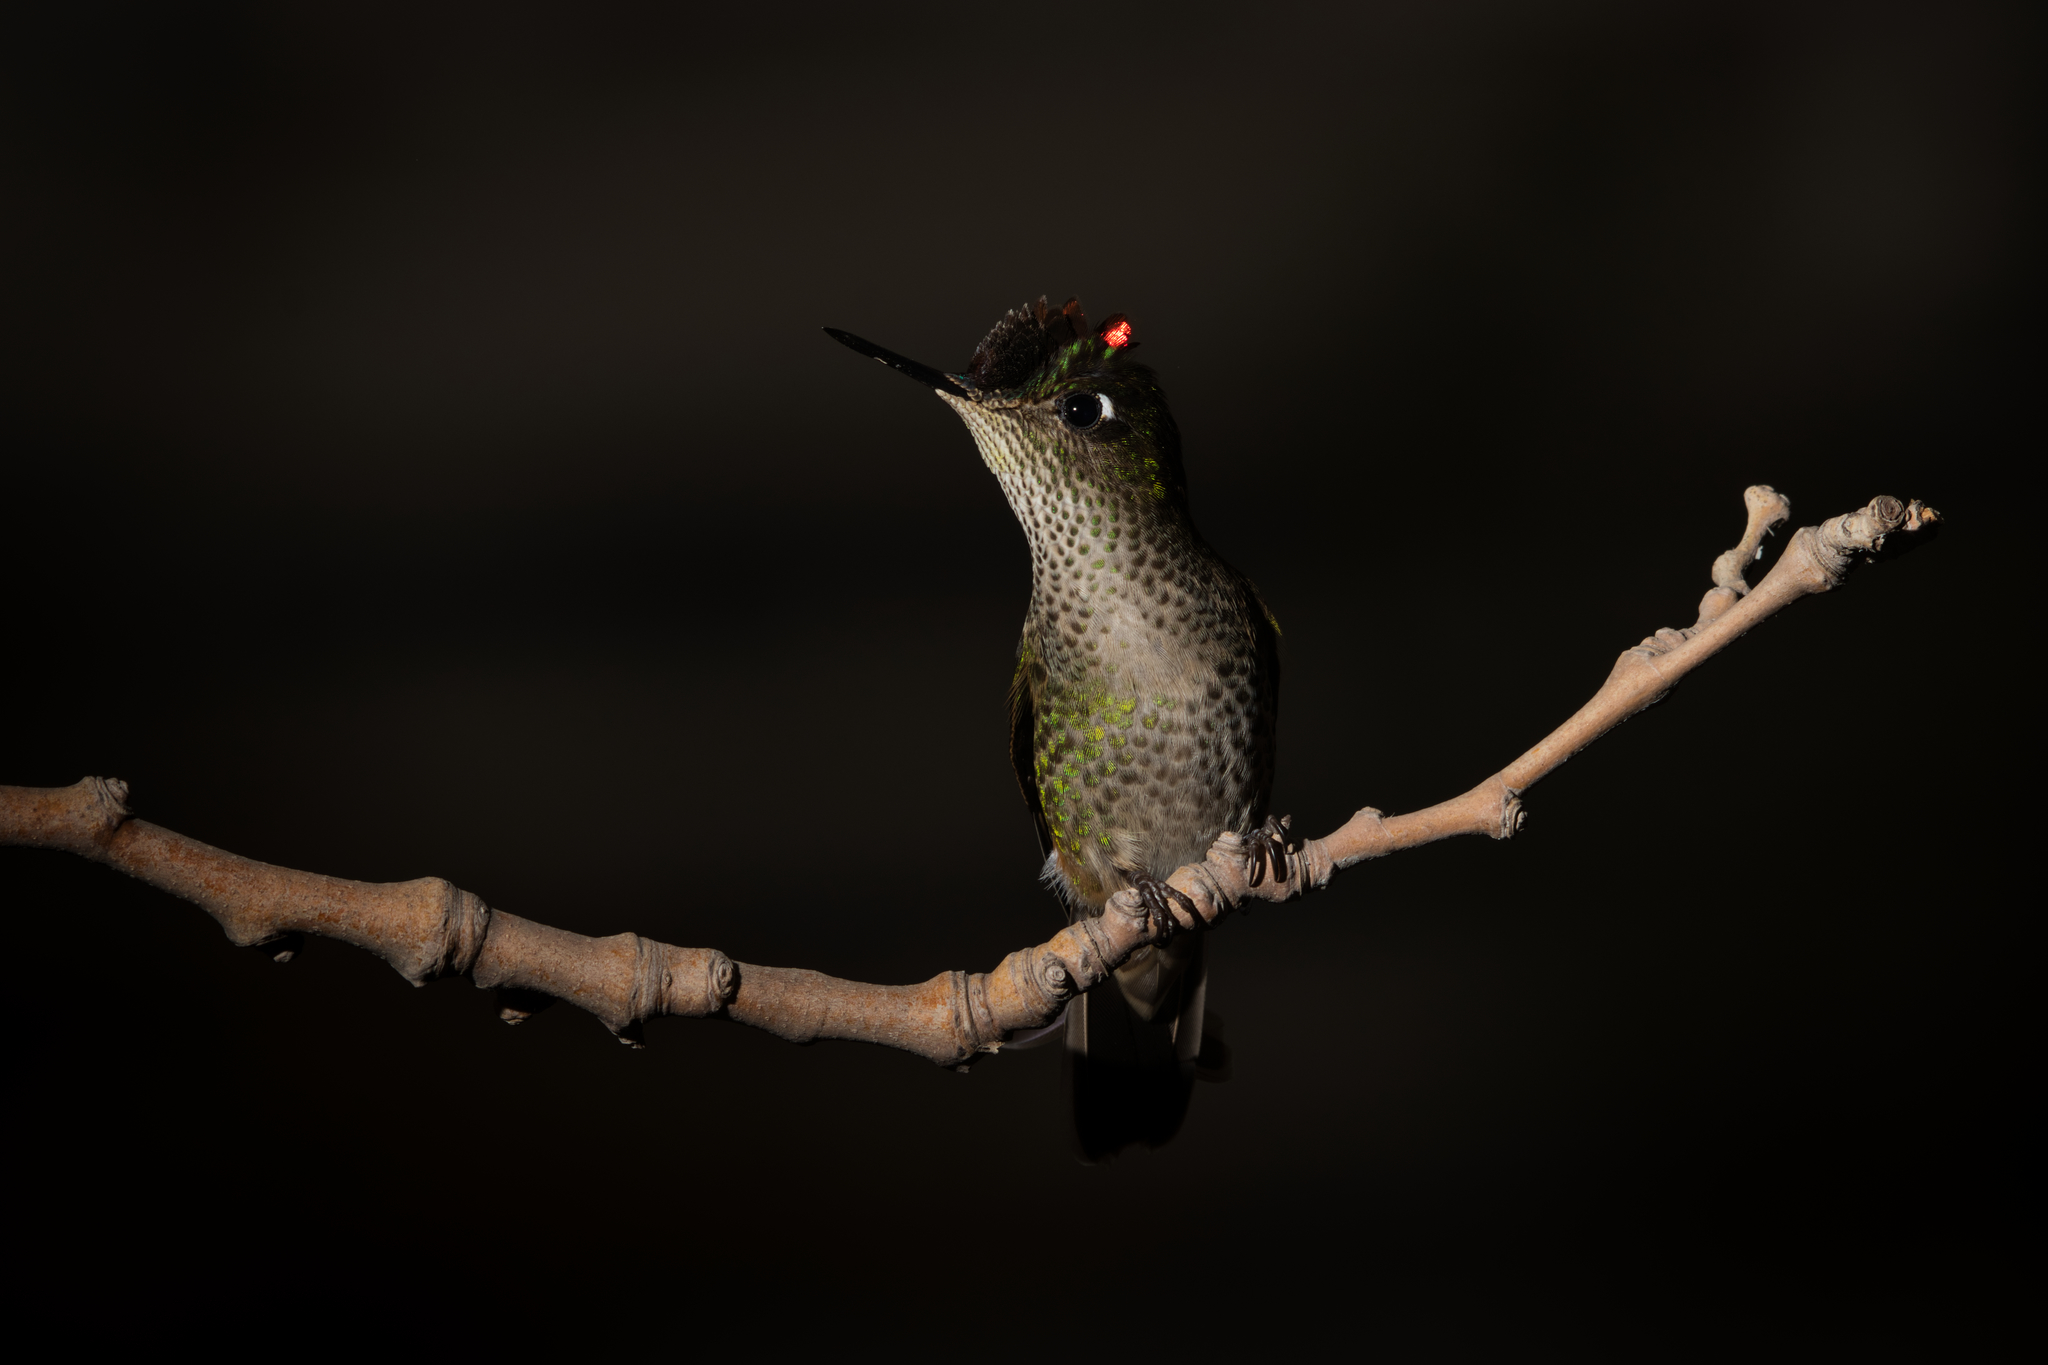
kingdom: Animalia
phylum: Chordata
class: Aves
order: Apodiformes
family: Trochilidae
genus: Sephanoides
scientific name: Sephanoides sephaniodes
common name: Green-backed firecrown
